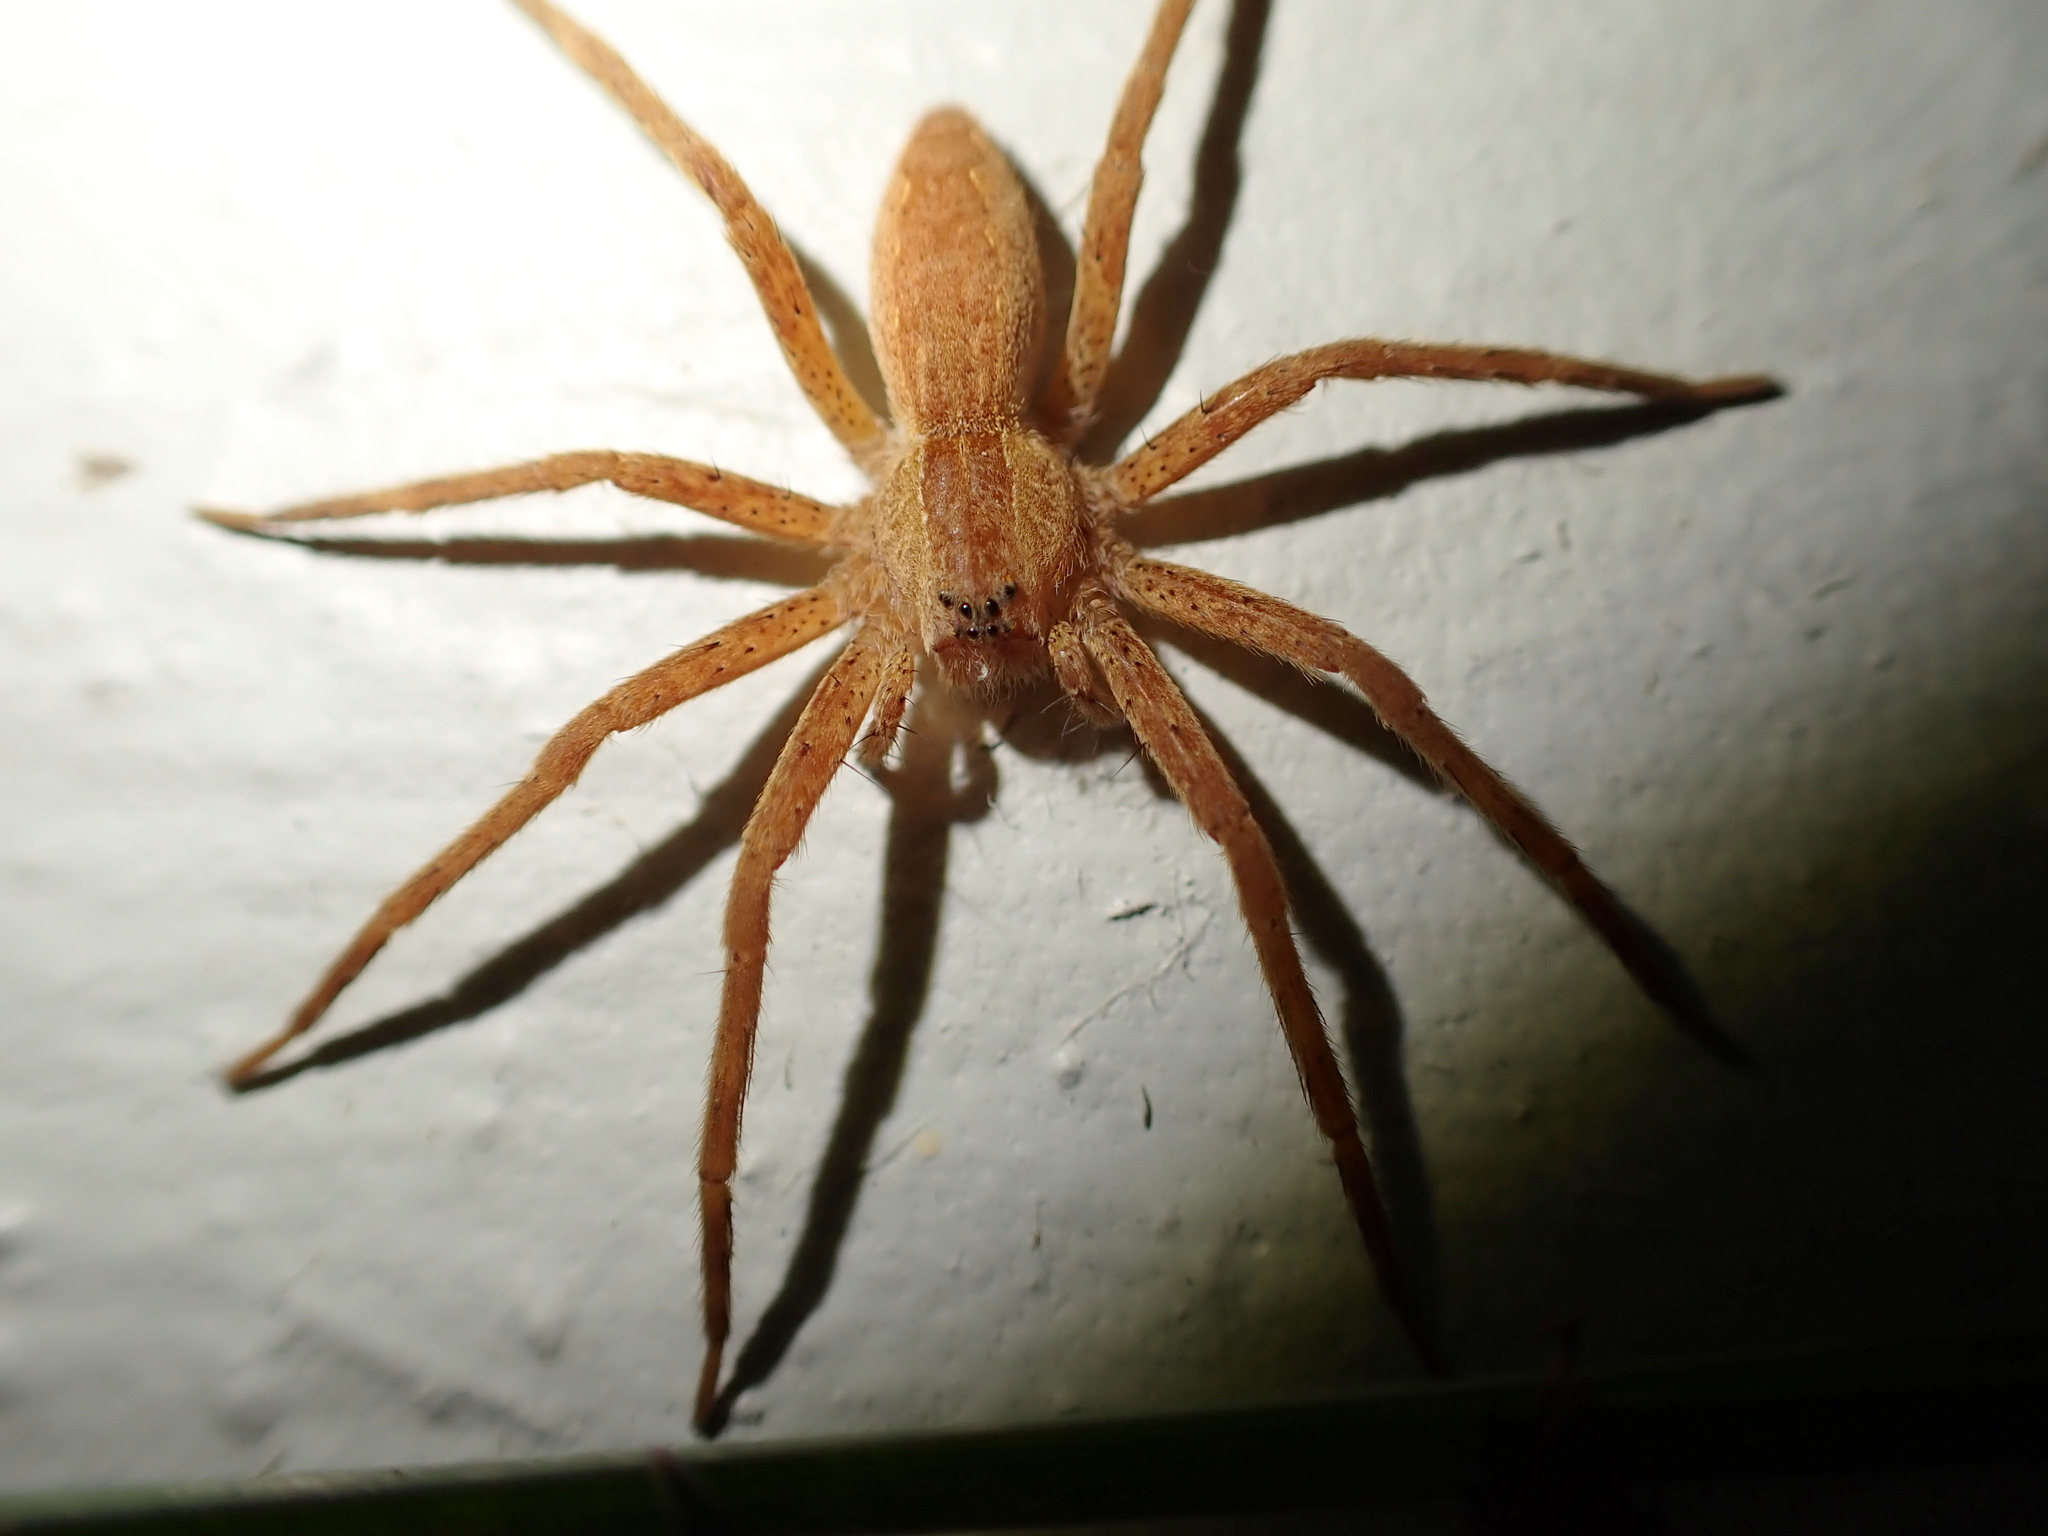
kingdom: Animalia
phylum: Arthropoda
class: Arachnida
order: Araneae
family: Pisauridae
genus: Pisaurina
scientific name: Pisaurina mira
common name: American nursery web spider
